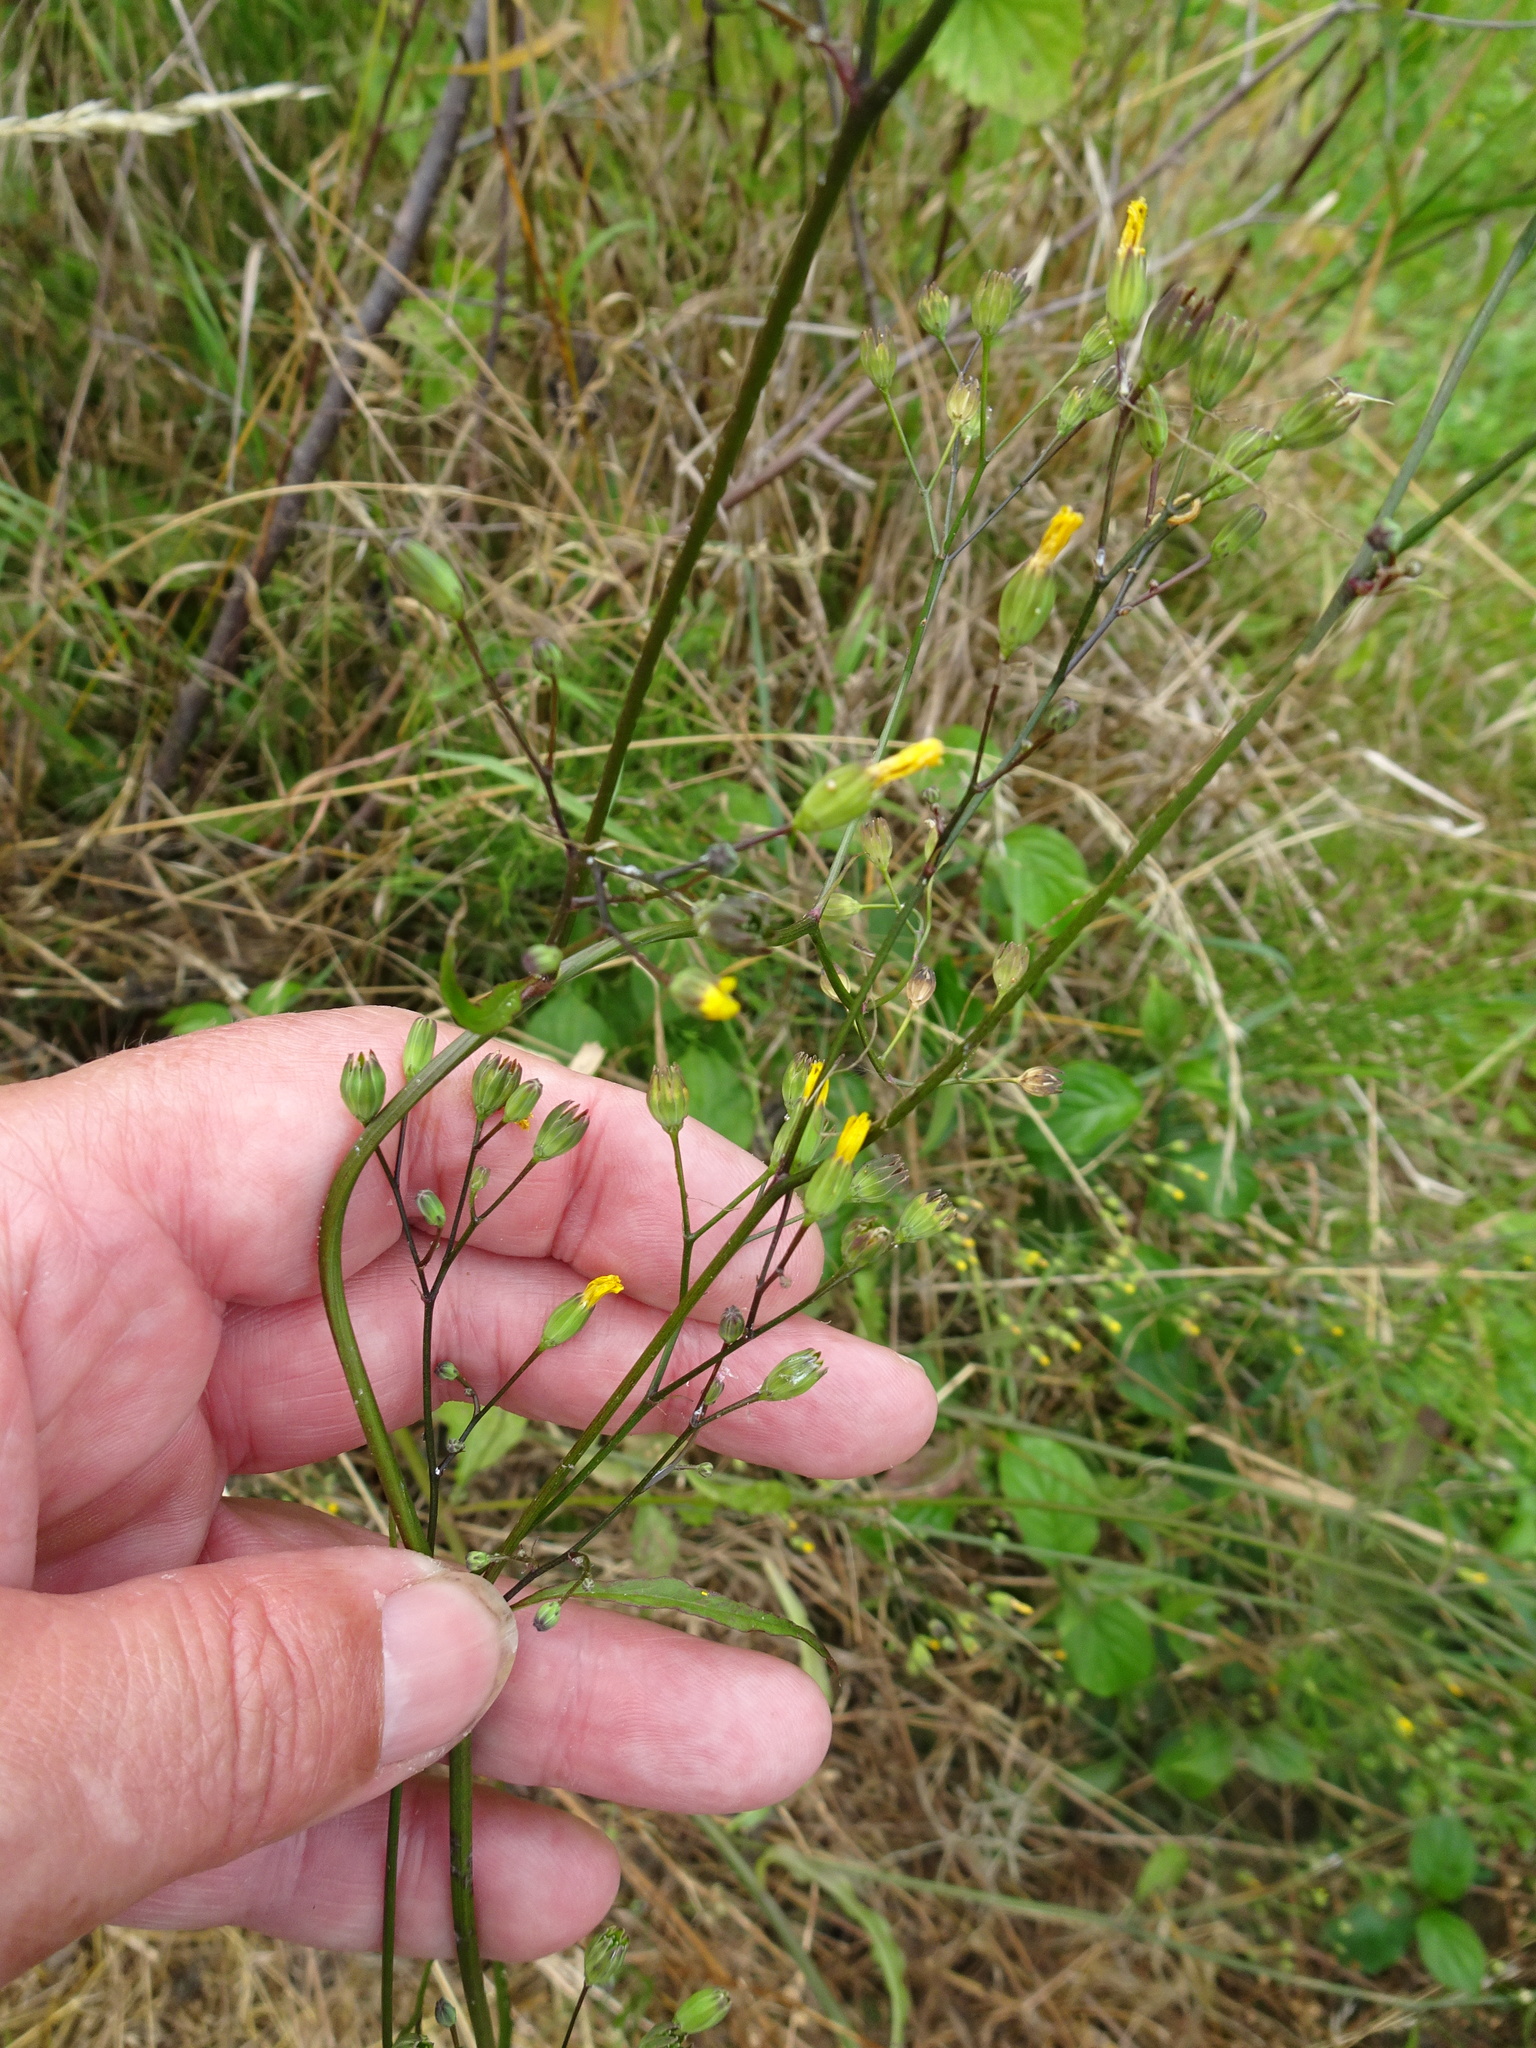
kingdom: Plantae
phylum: Tracheophyta
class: Magnoliopsida
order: Asterales
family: Asteraceae
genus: Lapsana
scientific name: Lapsana communis
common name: Nipplewort
